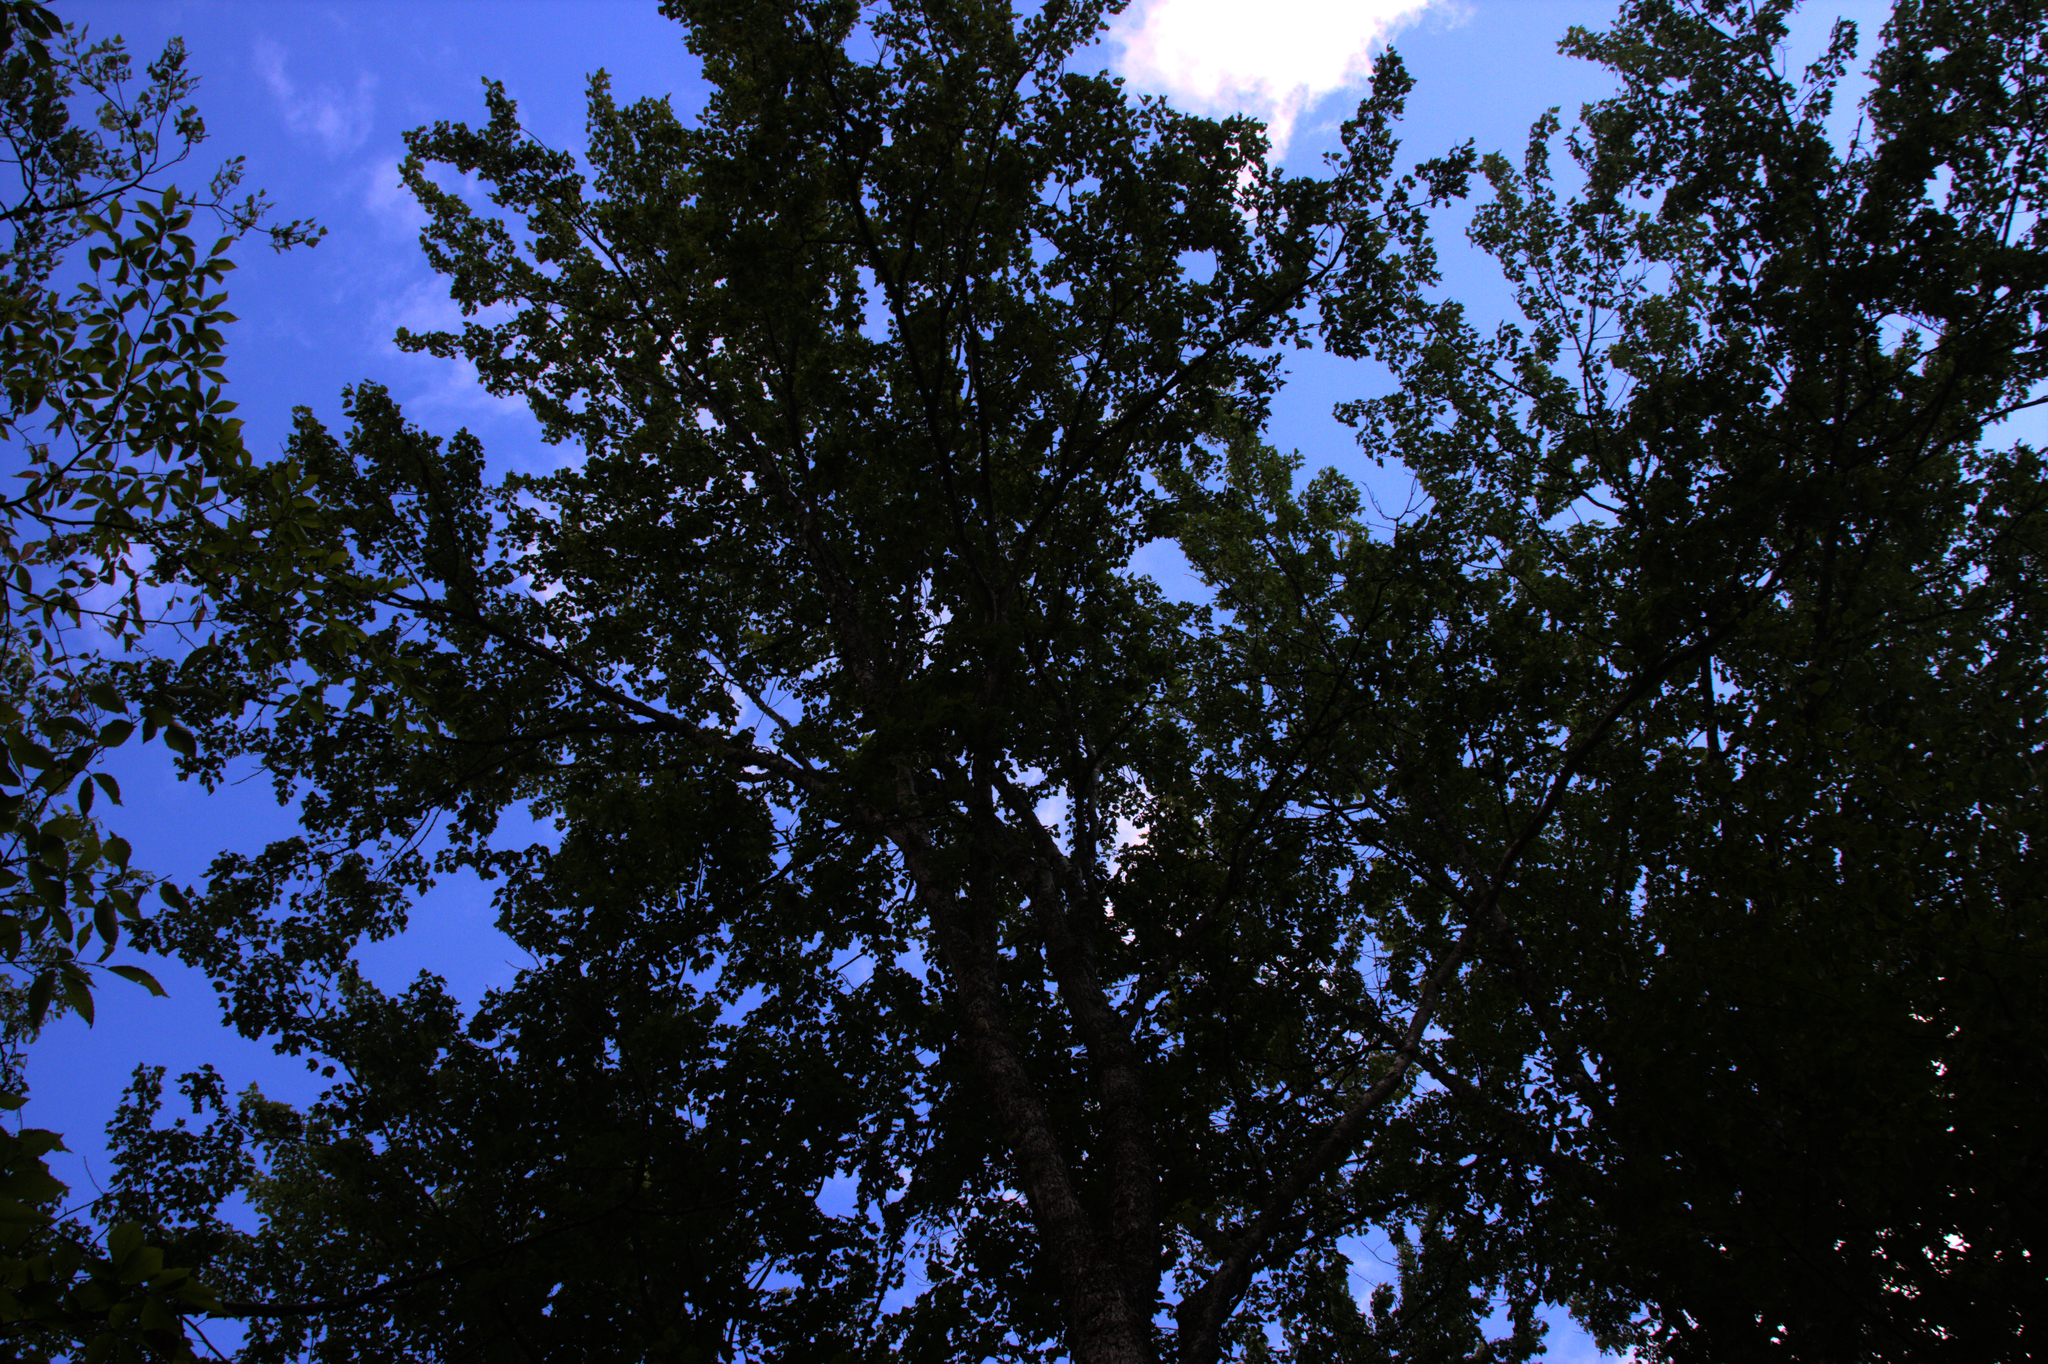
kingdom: Plantae
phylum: Tracheophyta
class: Magnoliopsida
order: Sapindales
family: Sapindaceae
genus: Acer
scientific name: Acer rubrum
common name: Red maple
